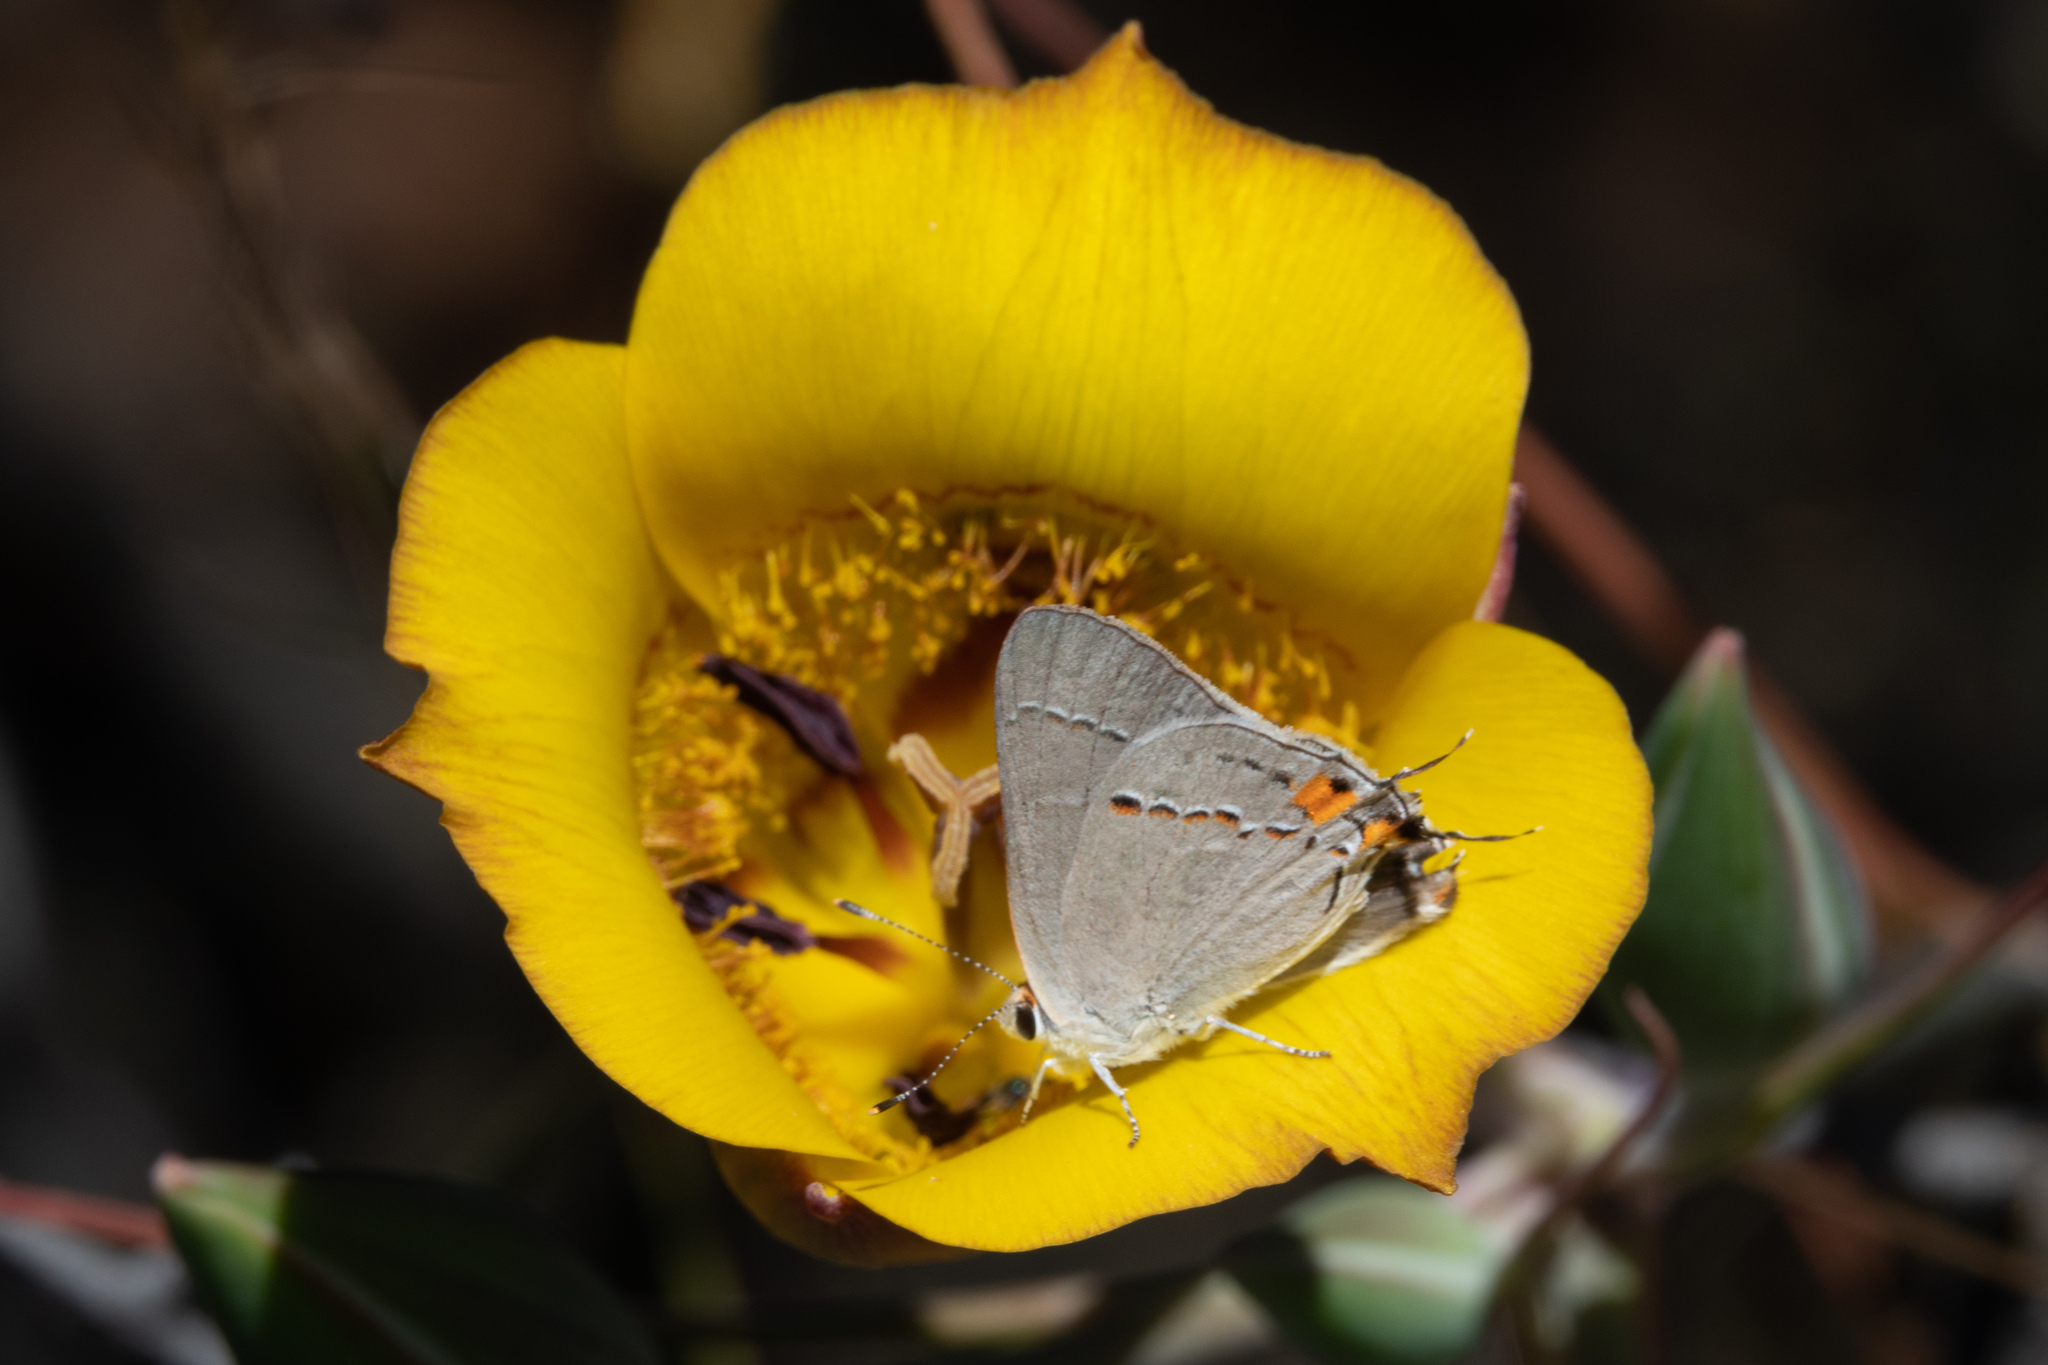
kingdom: Animalia
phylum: Arthropoda
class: Insecta
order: Lepidoptera
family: Lycaenidae
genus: Strymon
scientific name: Strymon melinus
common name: Gray hairstreak
